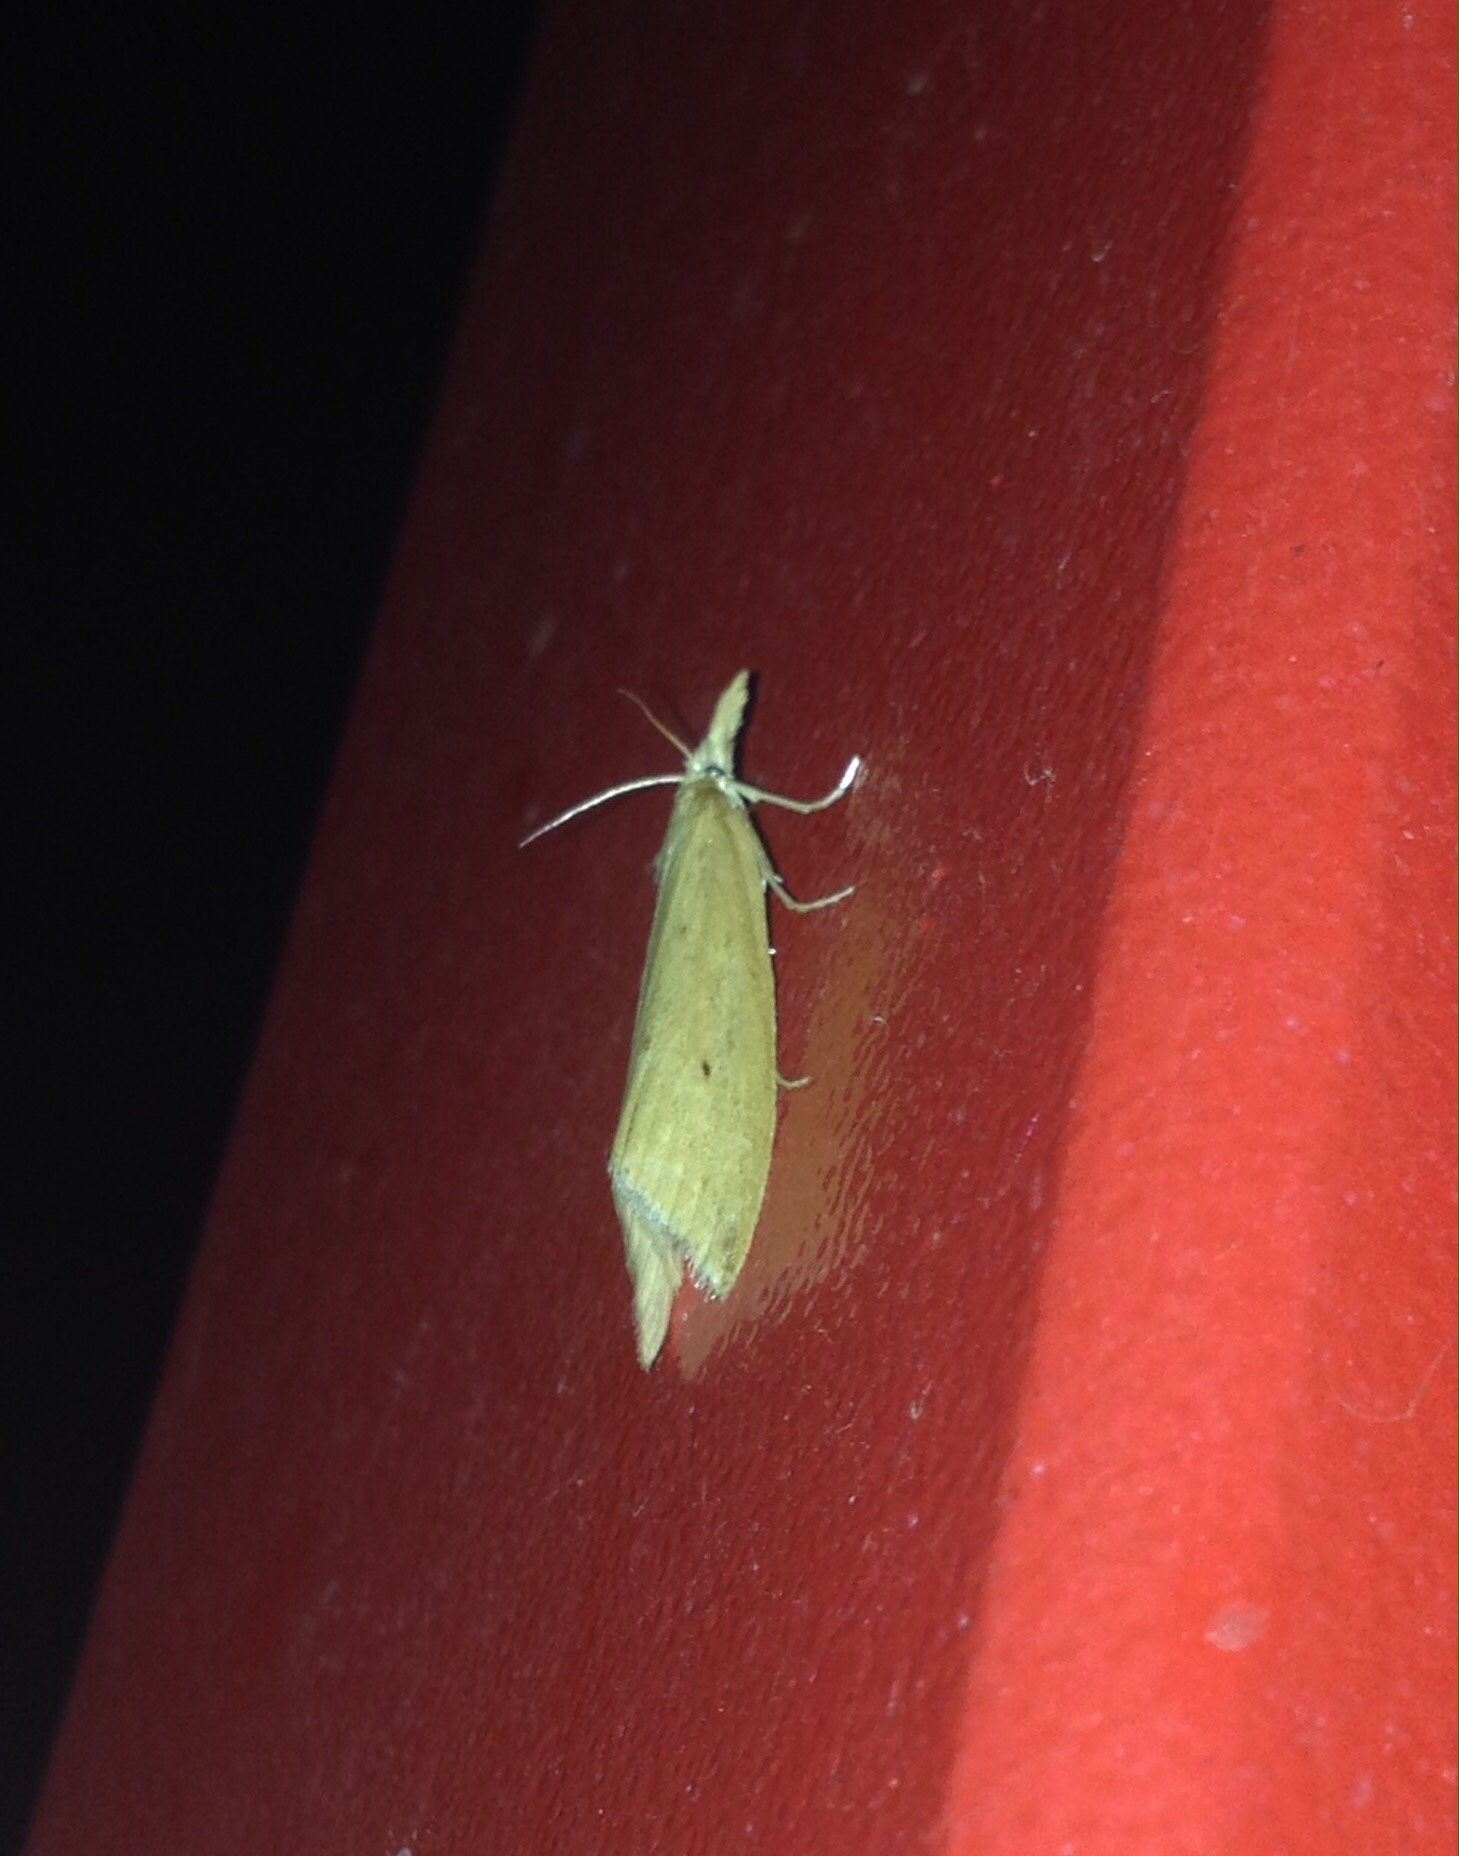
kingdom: Animalia
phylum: Arthropoda
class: Insecta
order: Lepidoptera
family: Crambidae
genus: Donacaula
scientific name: Donacaula forficella
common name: Pale water-veneer
